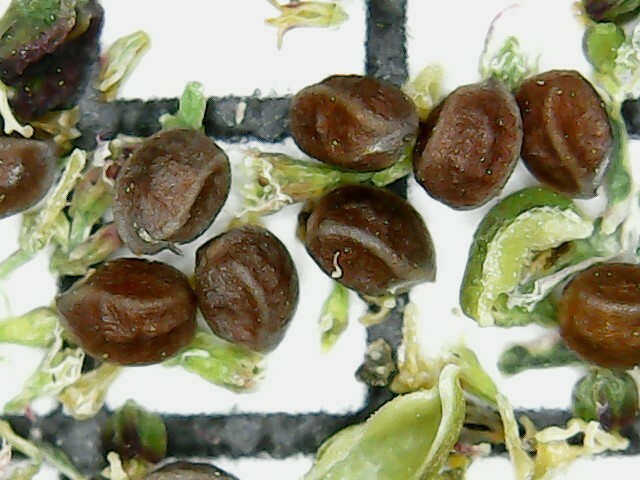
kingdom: Plantae
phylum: Tracheophyta
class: Magnoliopsida
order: Malpighiales
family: Euphorbiaceae
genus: Euphorbia
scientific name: Euphorbia hypericifolia
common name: Graceful sandmat
